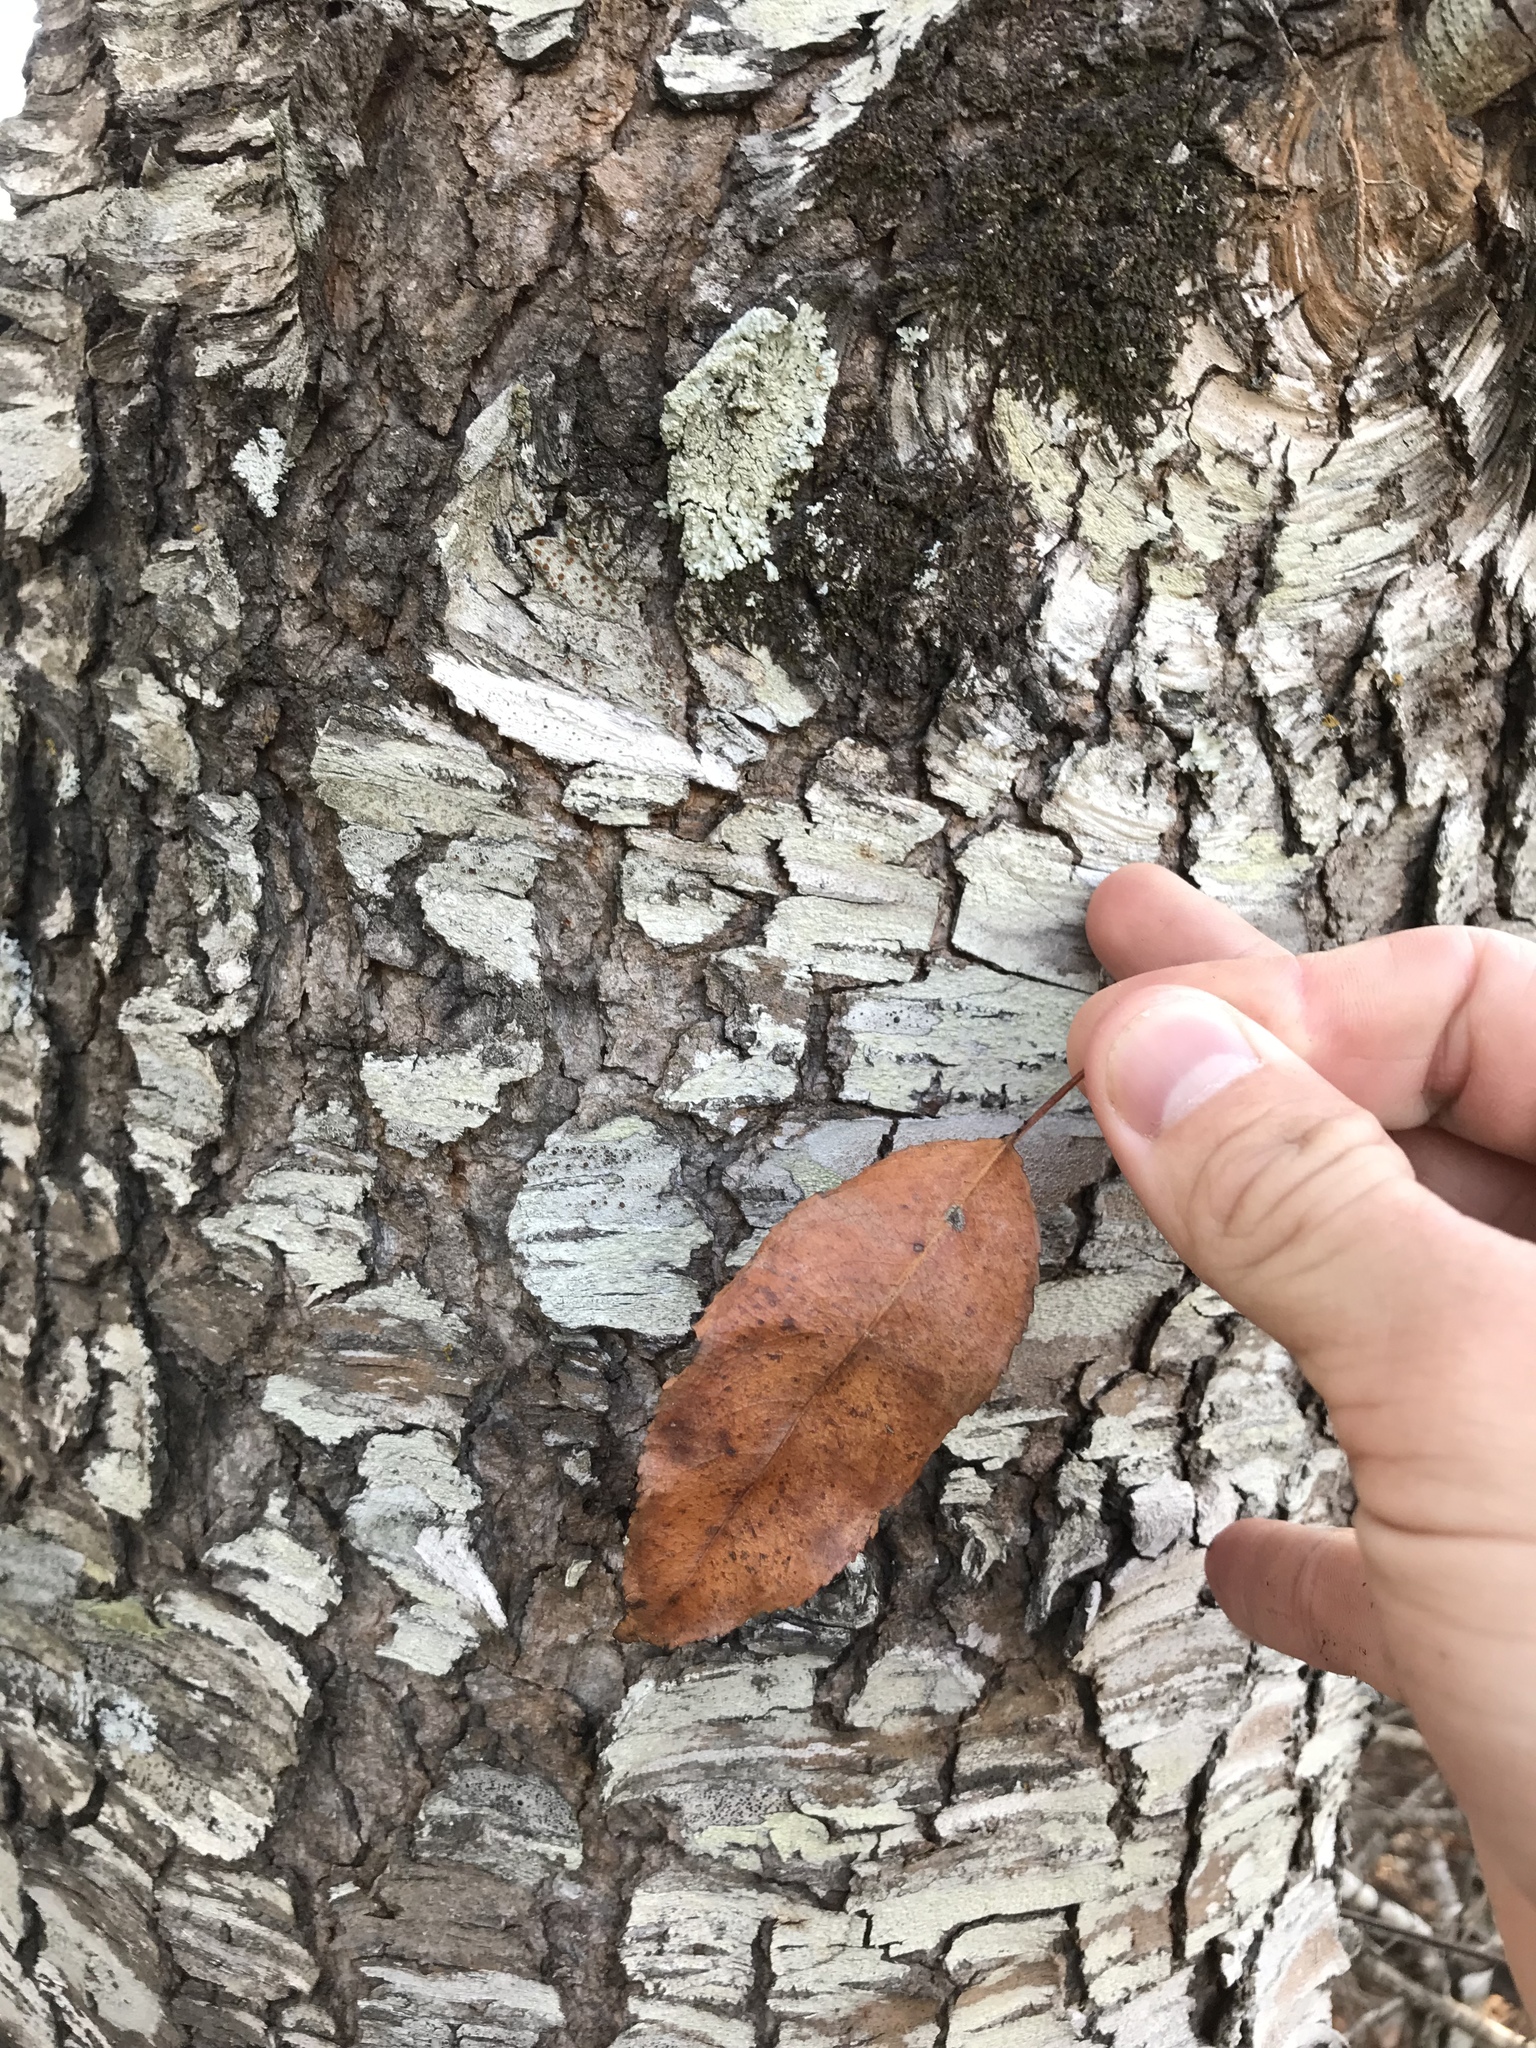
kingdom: Plantae
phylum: Tracheophyta
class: Magnoliopsida
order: Rosales
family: Rosaceae
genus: Prunus
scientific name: Prunus serotina
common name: Black cherry
